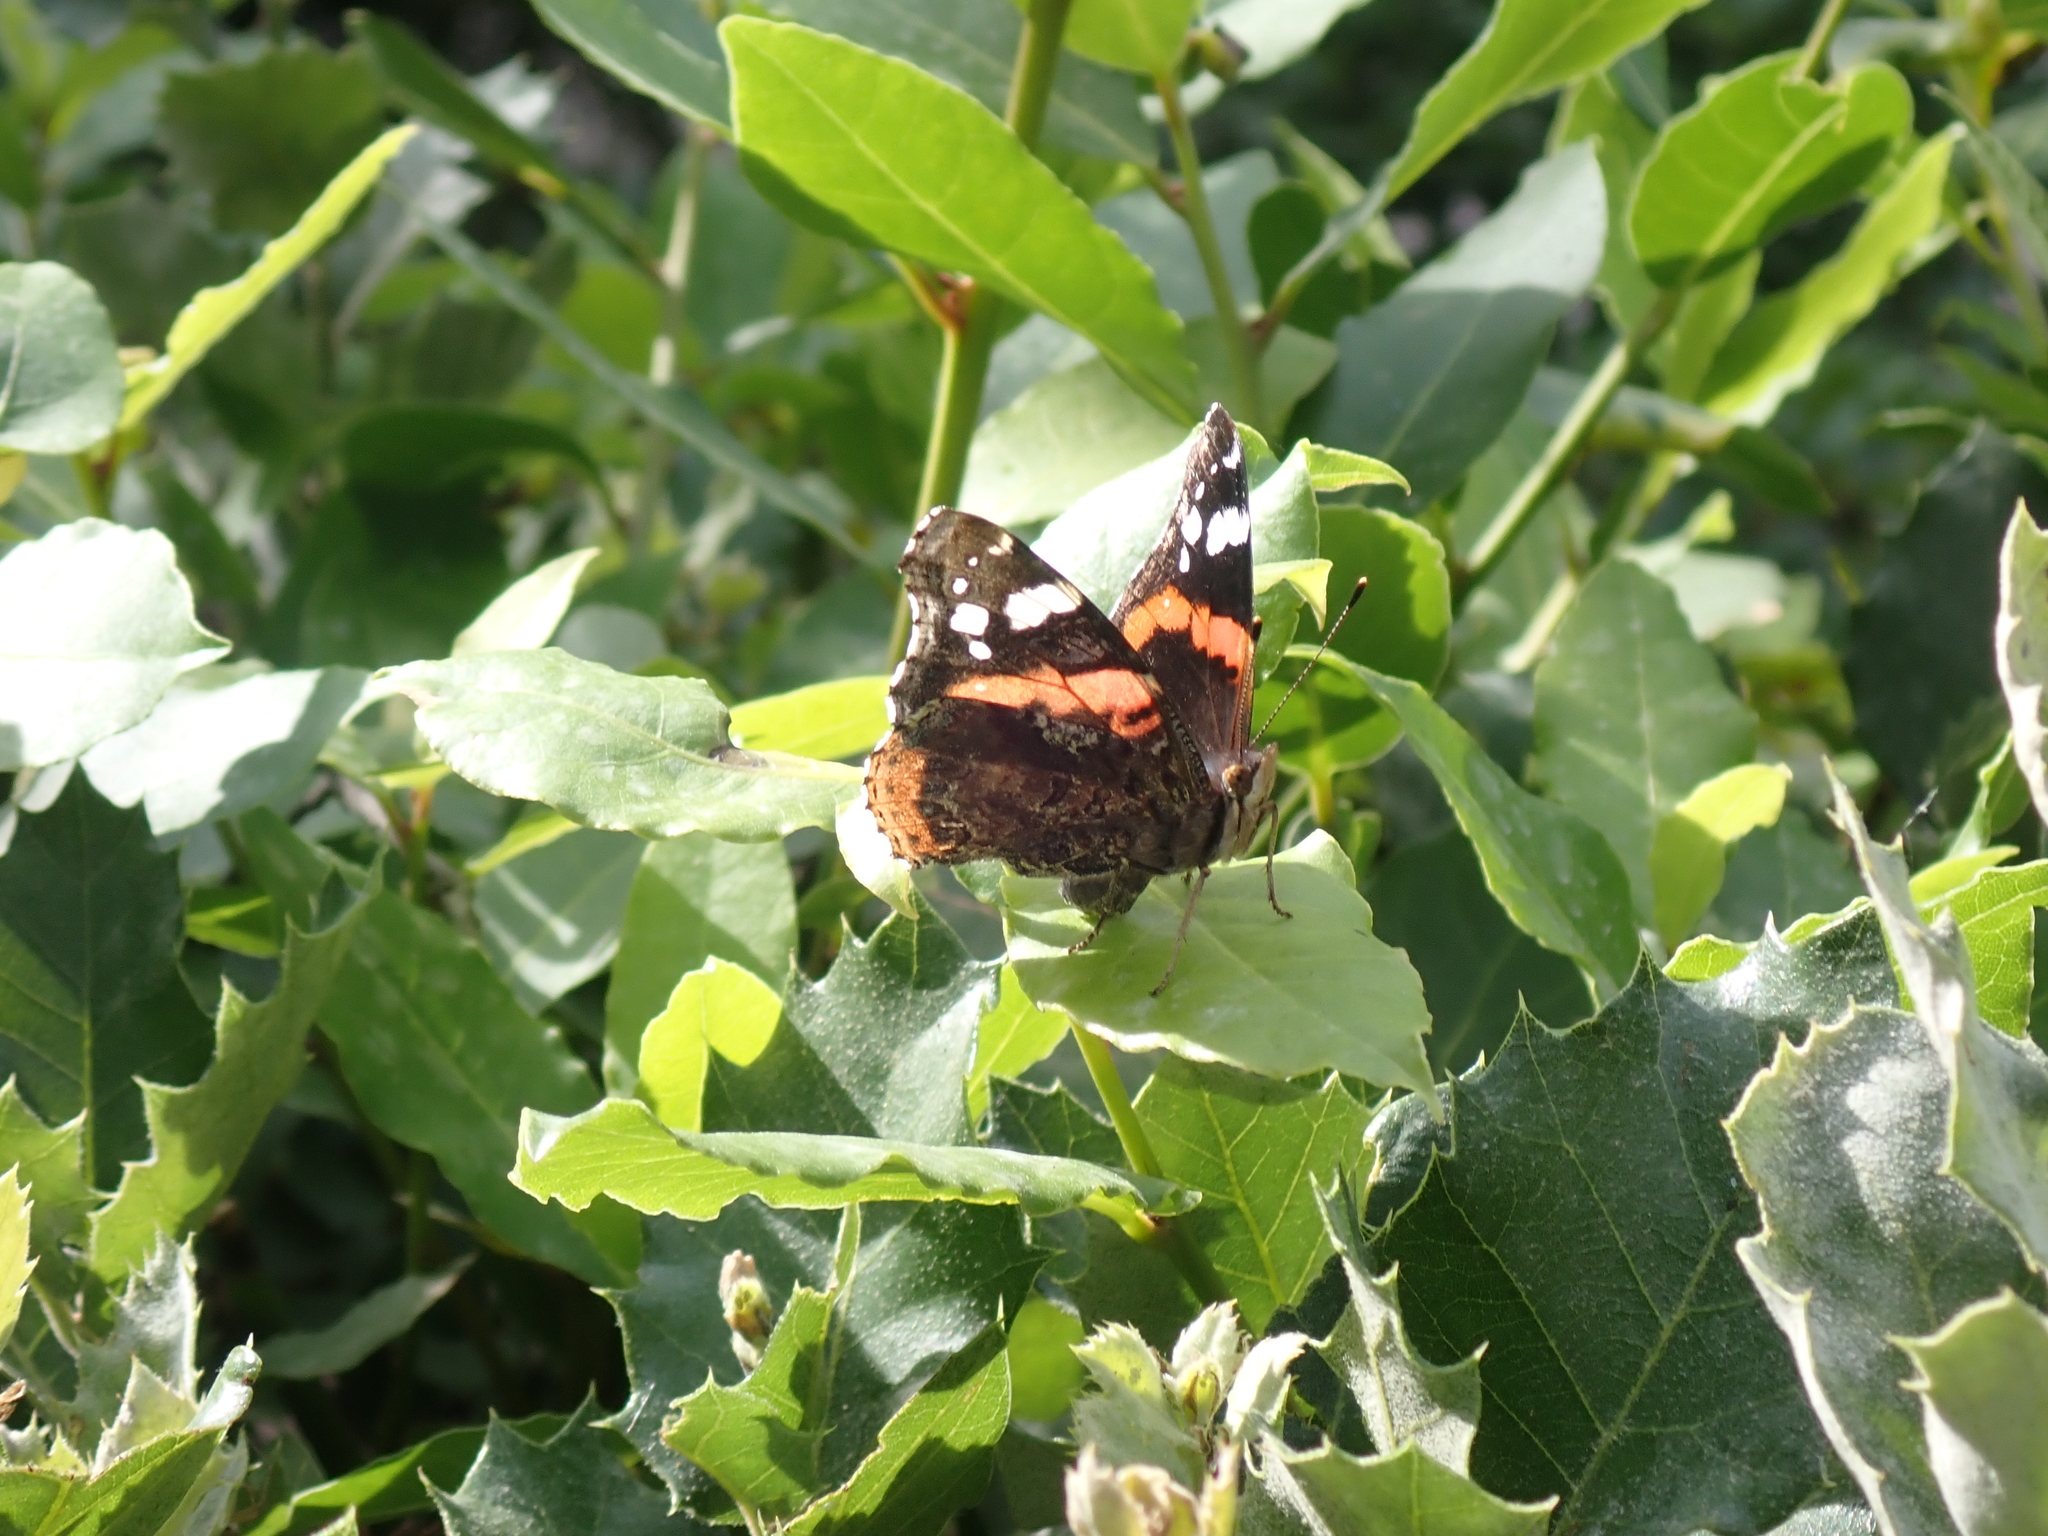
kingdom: Animalia
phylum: Arthropoda
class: Insecta
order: Lepidoptera
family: Nymphalidae
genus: Vanessa
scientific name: Vanessa atalanta
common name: Red admiral
